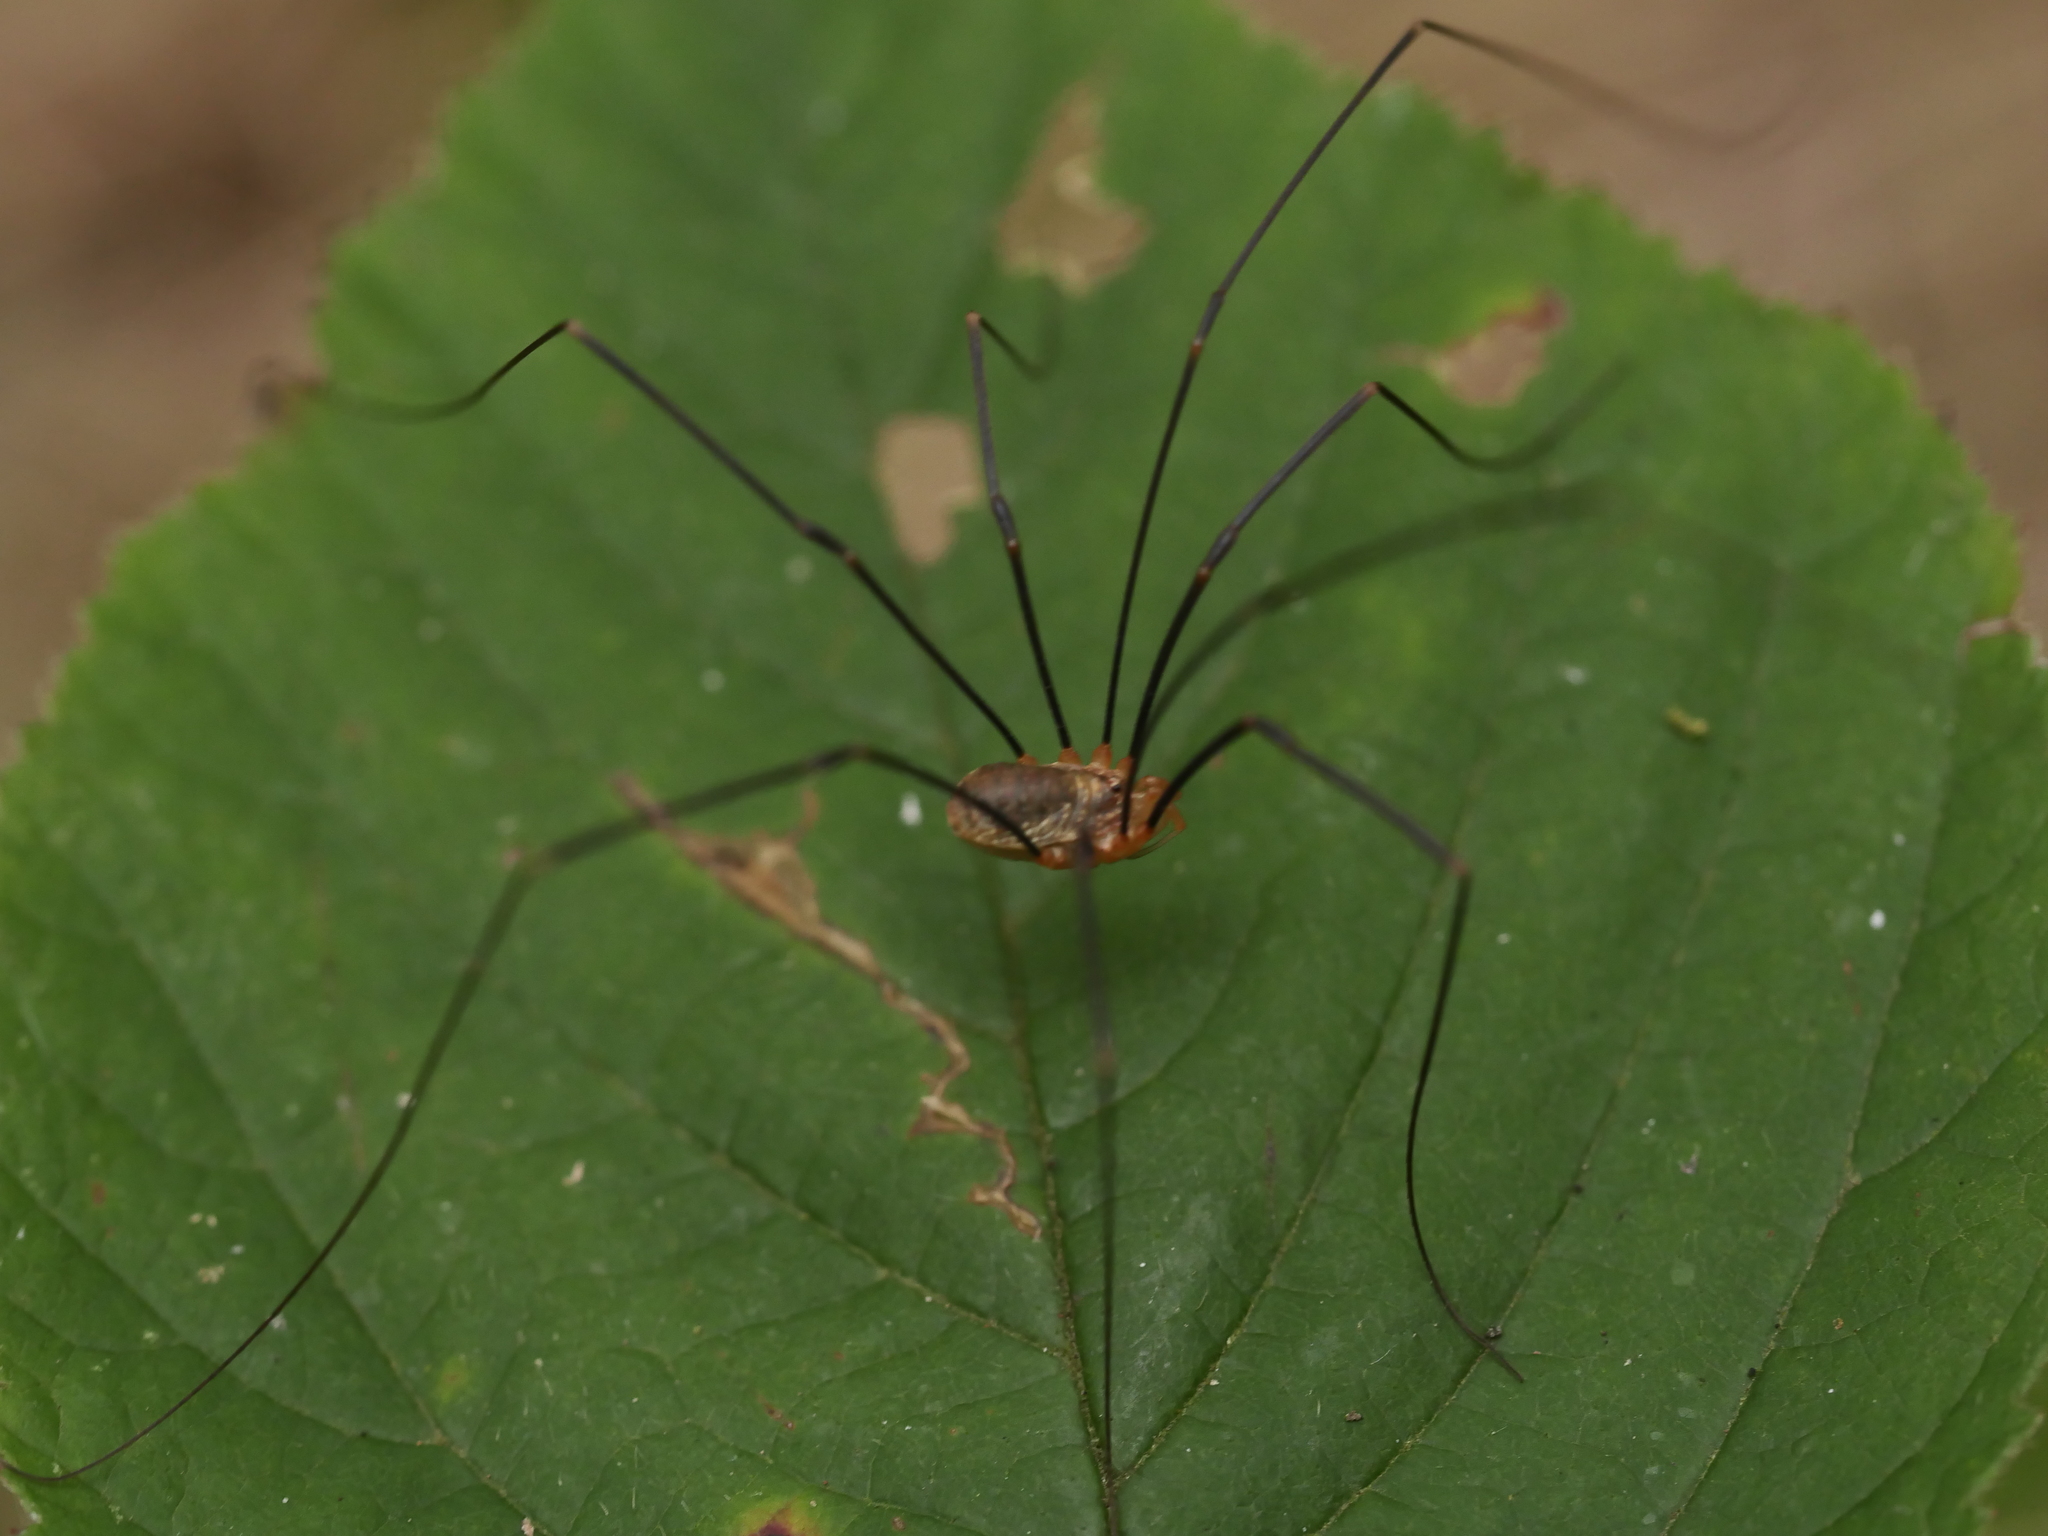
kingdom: Animalia
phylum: Arthropoda
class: Arachnida
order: Opiliones
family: Phalangiidae
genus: Opilio
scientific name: Opilio canestrinii
